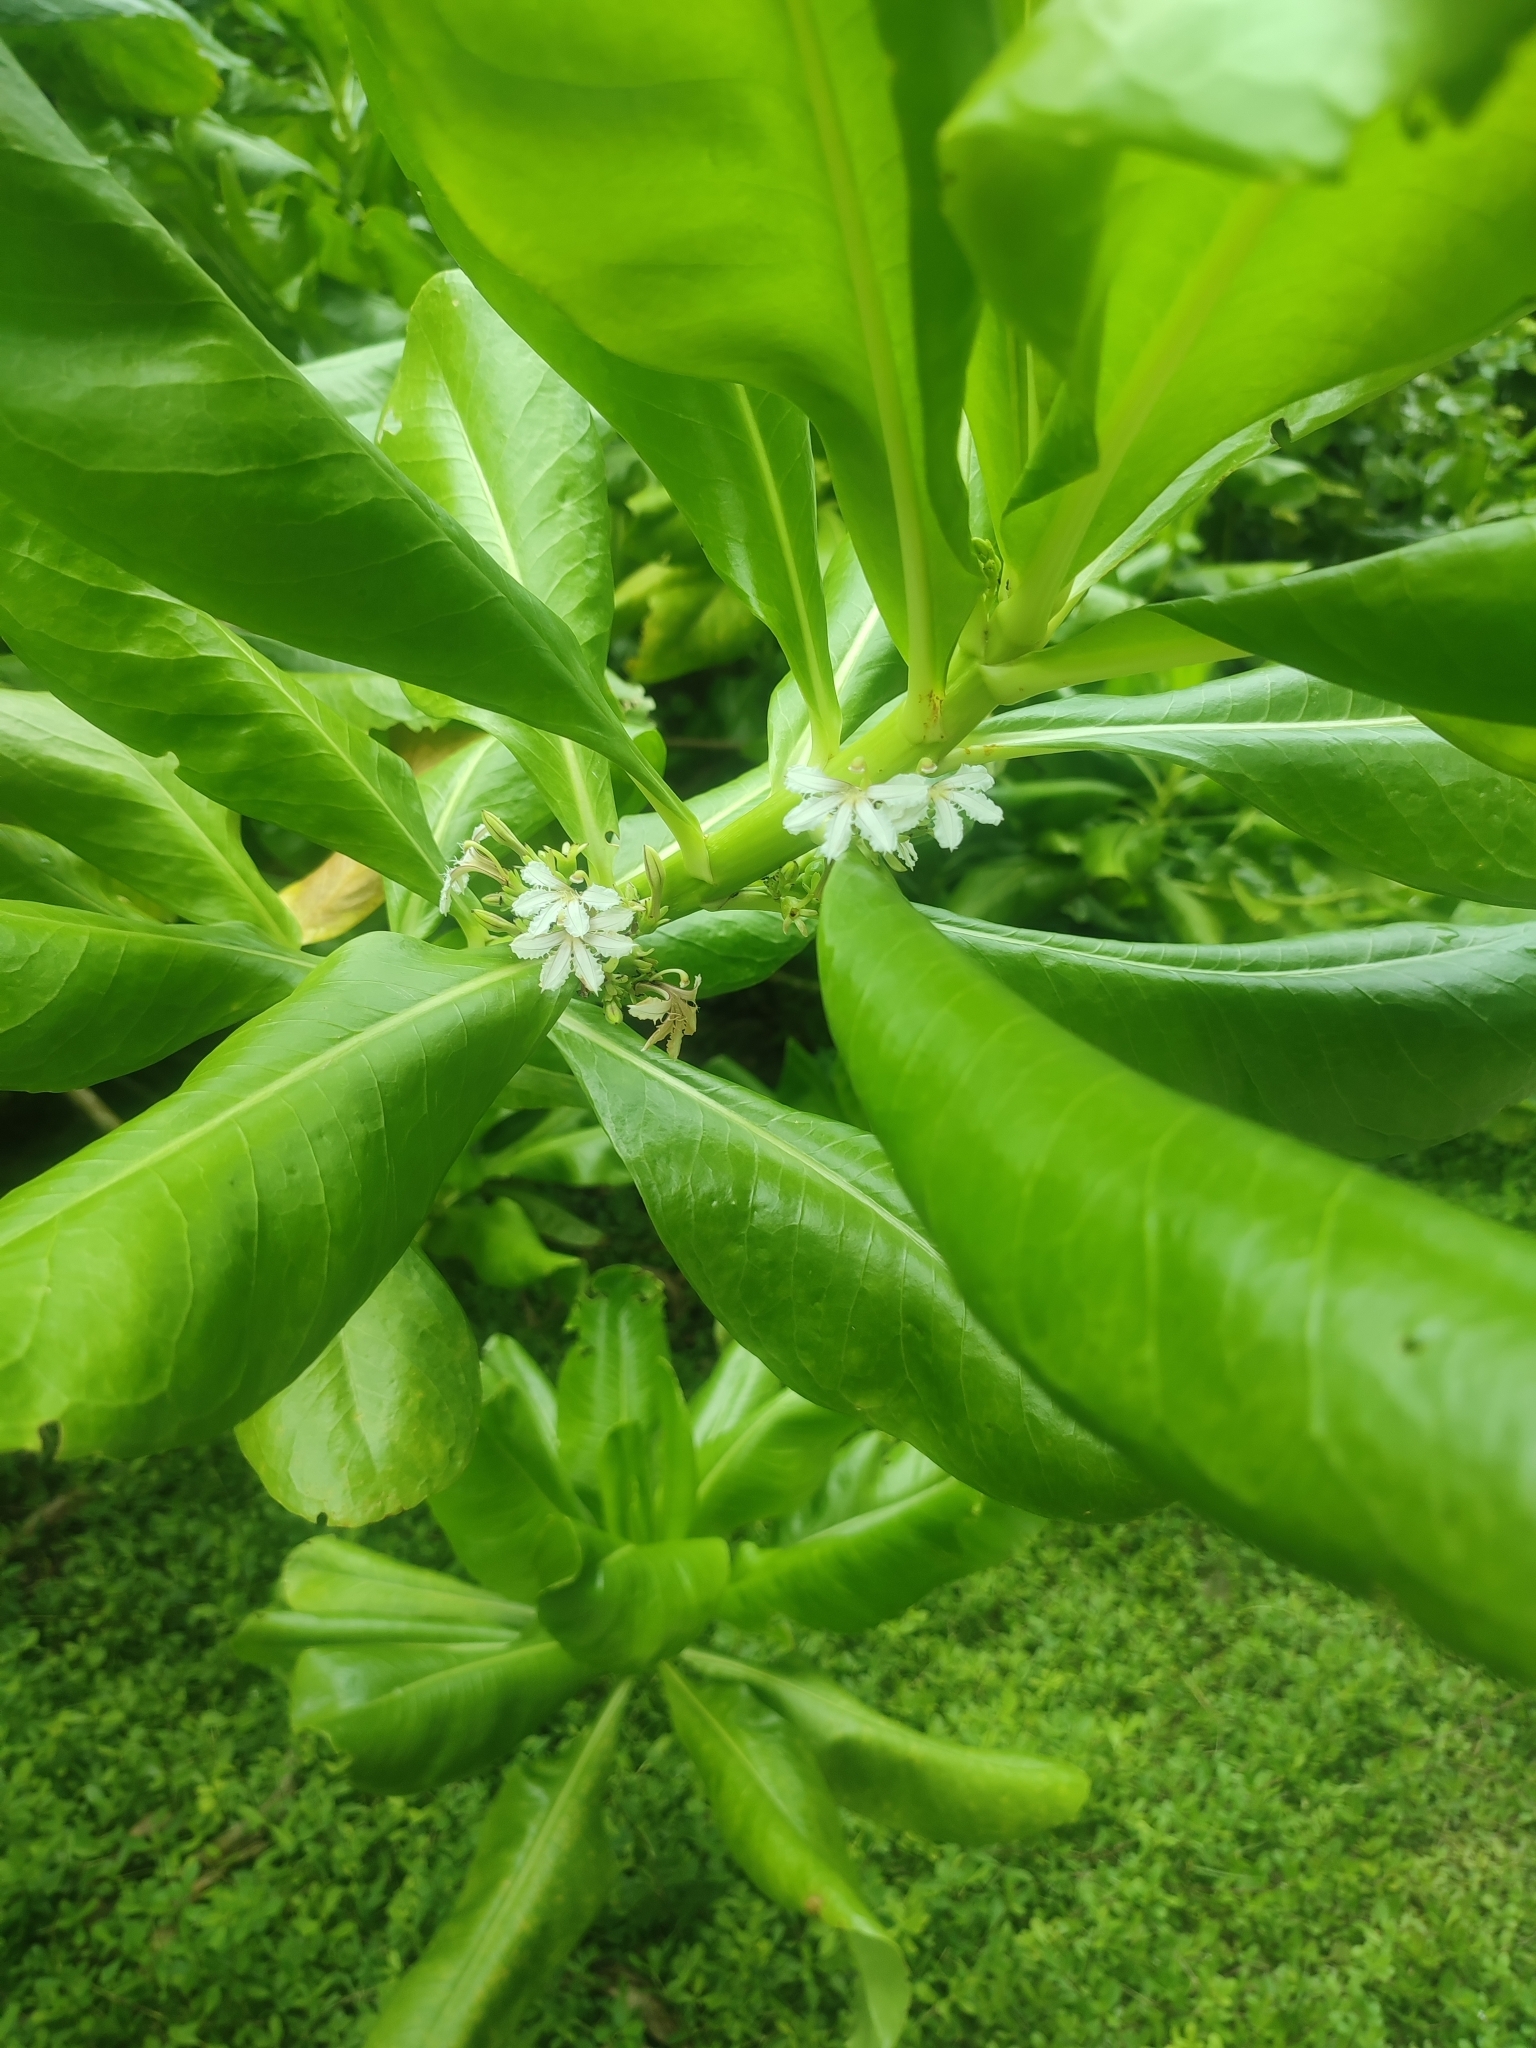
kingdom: Plantae
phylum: Tracheophyta
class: Magnoliopsida
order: Asterales
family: Goodeniaceae
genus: Scaevola
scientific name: Scaevola taccada
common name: Sea lettucetree
